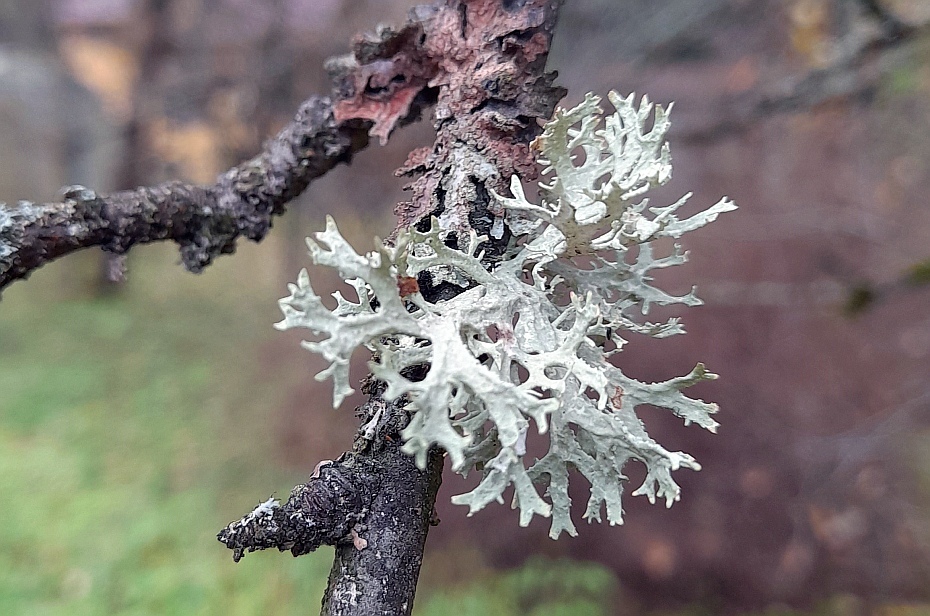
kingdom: Fungi
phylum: Ascomycota
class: Lecanoromycetes
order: Lecanorales
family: Parmeliaceae
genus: Evernia
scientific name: Evernia prunastri
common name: Oak moss
